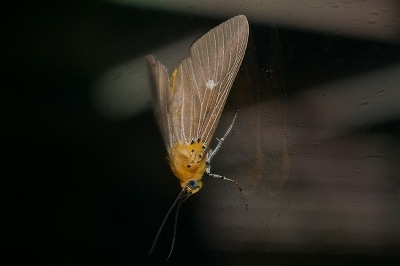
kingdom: Animalia
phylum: Arthropoda
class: Insecta
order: Lepidoptera
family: Erebidae
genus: Asota
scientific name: Asota caricae
